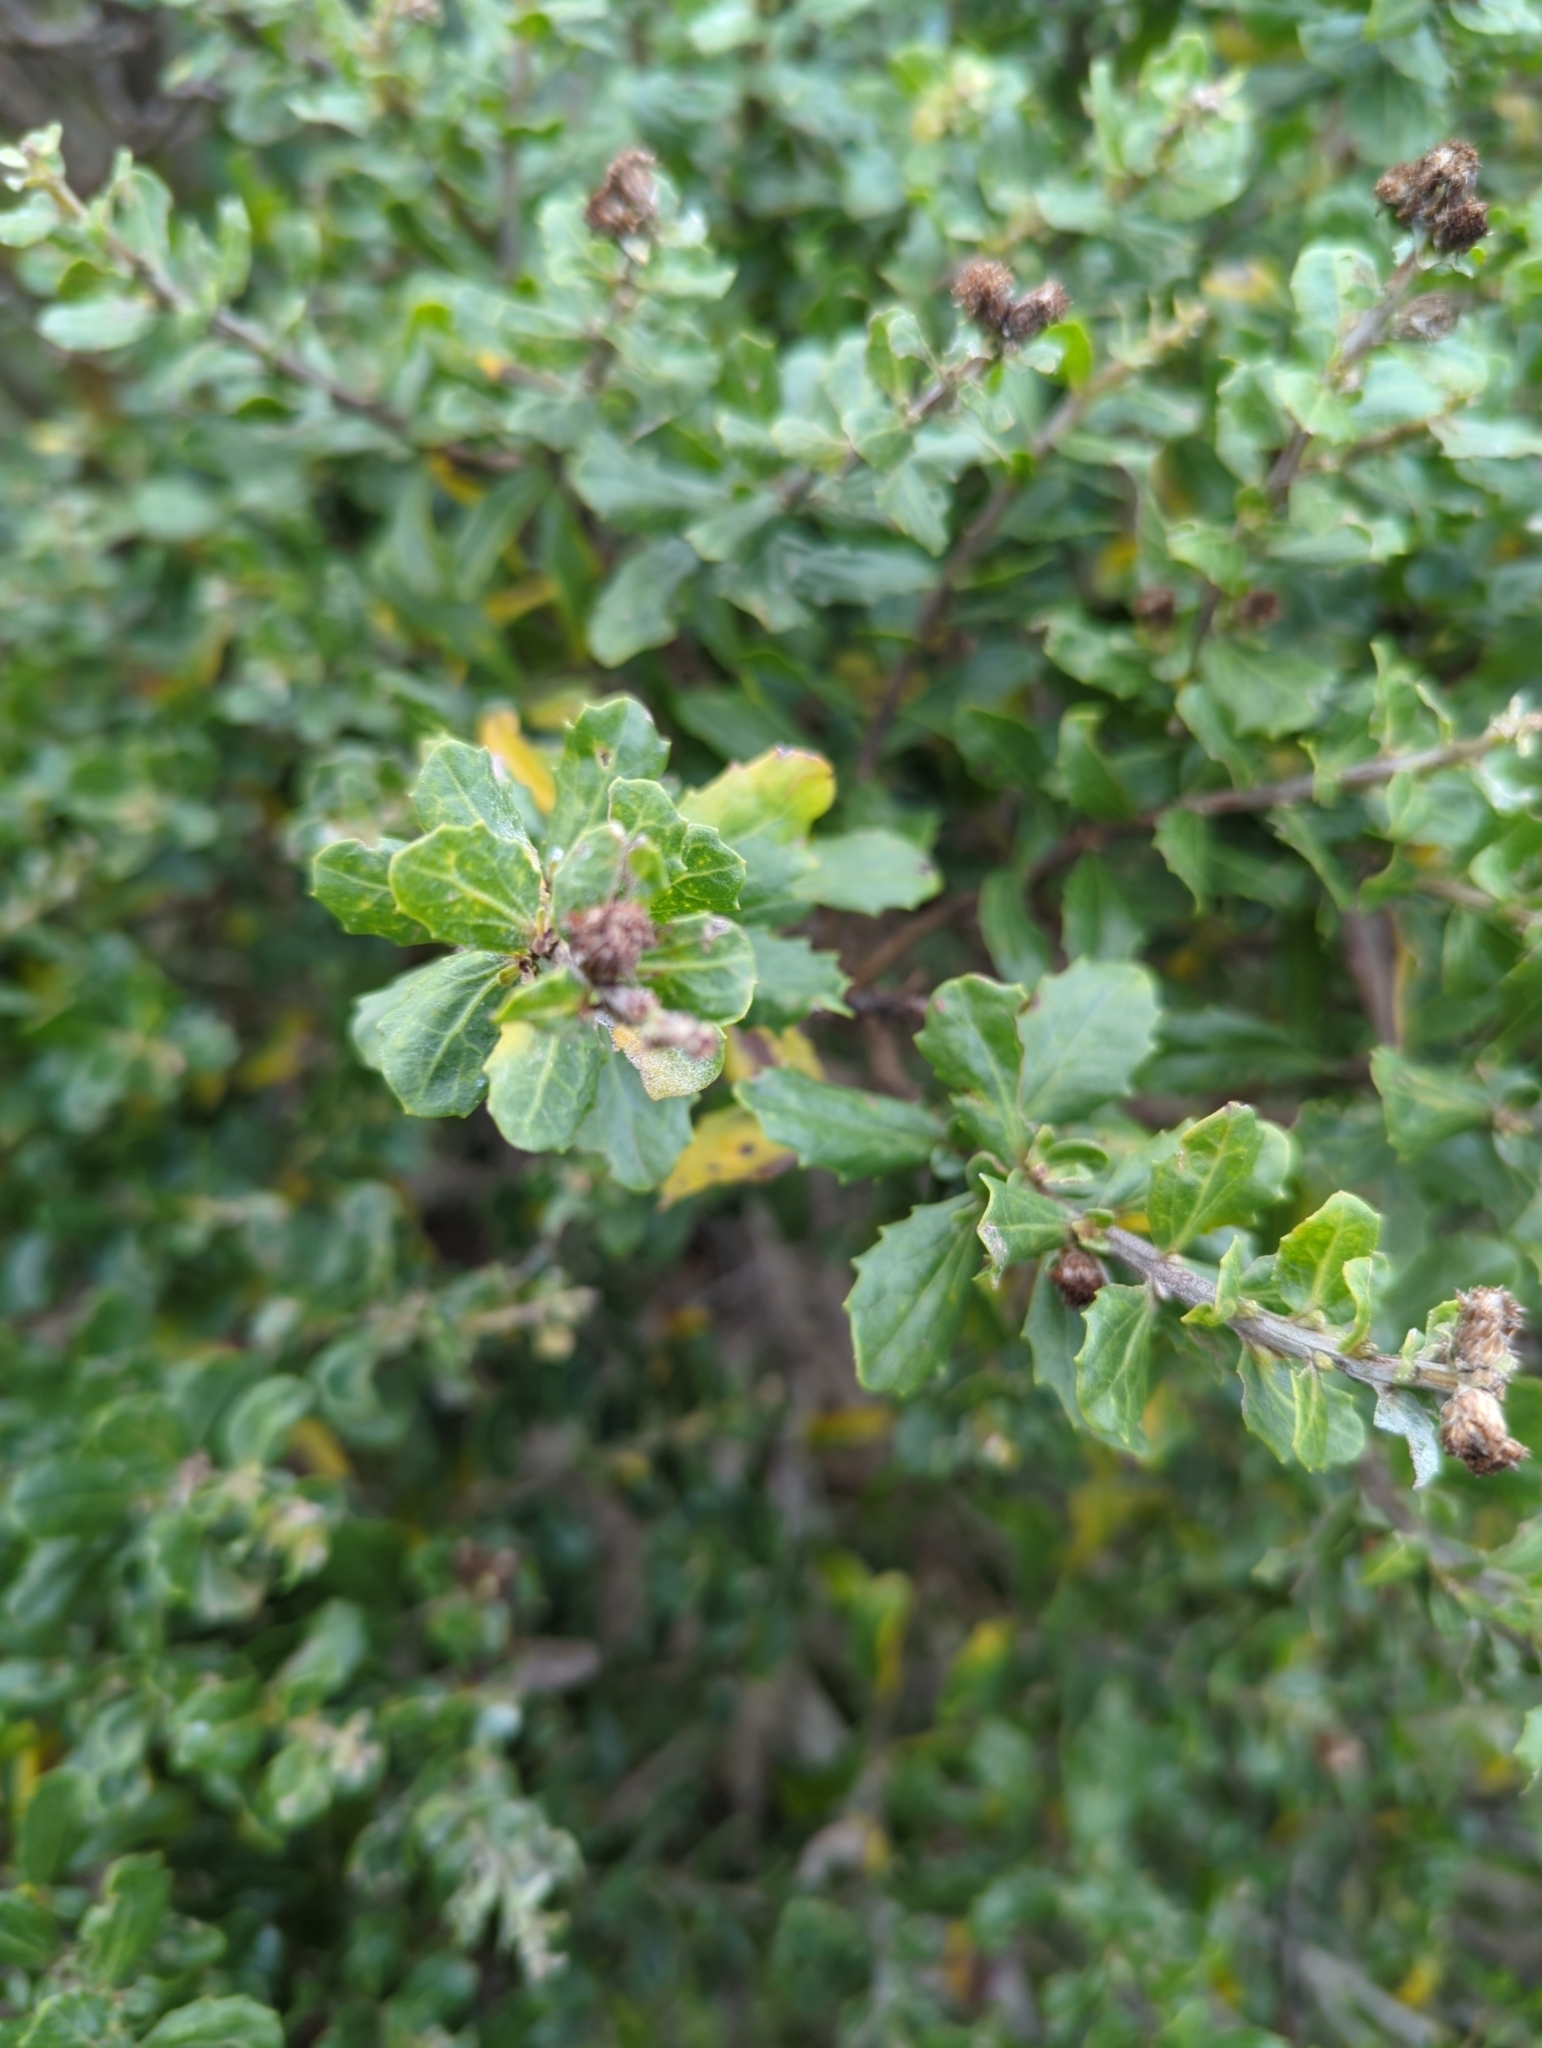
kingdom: Plantae
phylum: Tracheophyta
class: Magnoliopsida
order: Asterales
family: Asteraceae
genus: Baccharis
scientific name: Baccharis pilularis
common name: Coyotebrush
